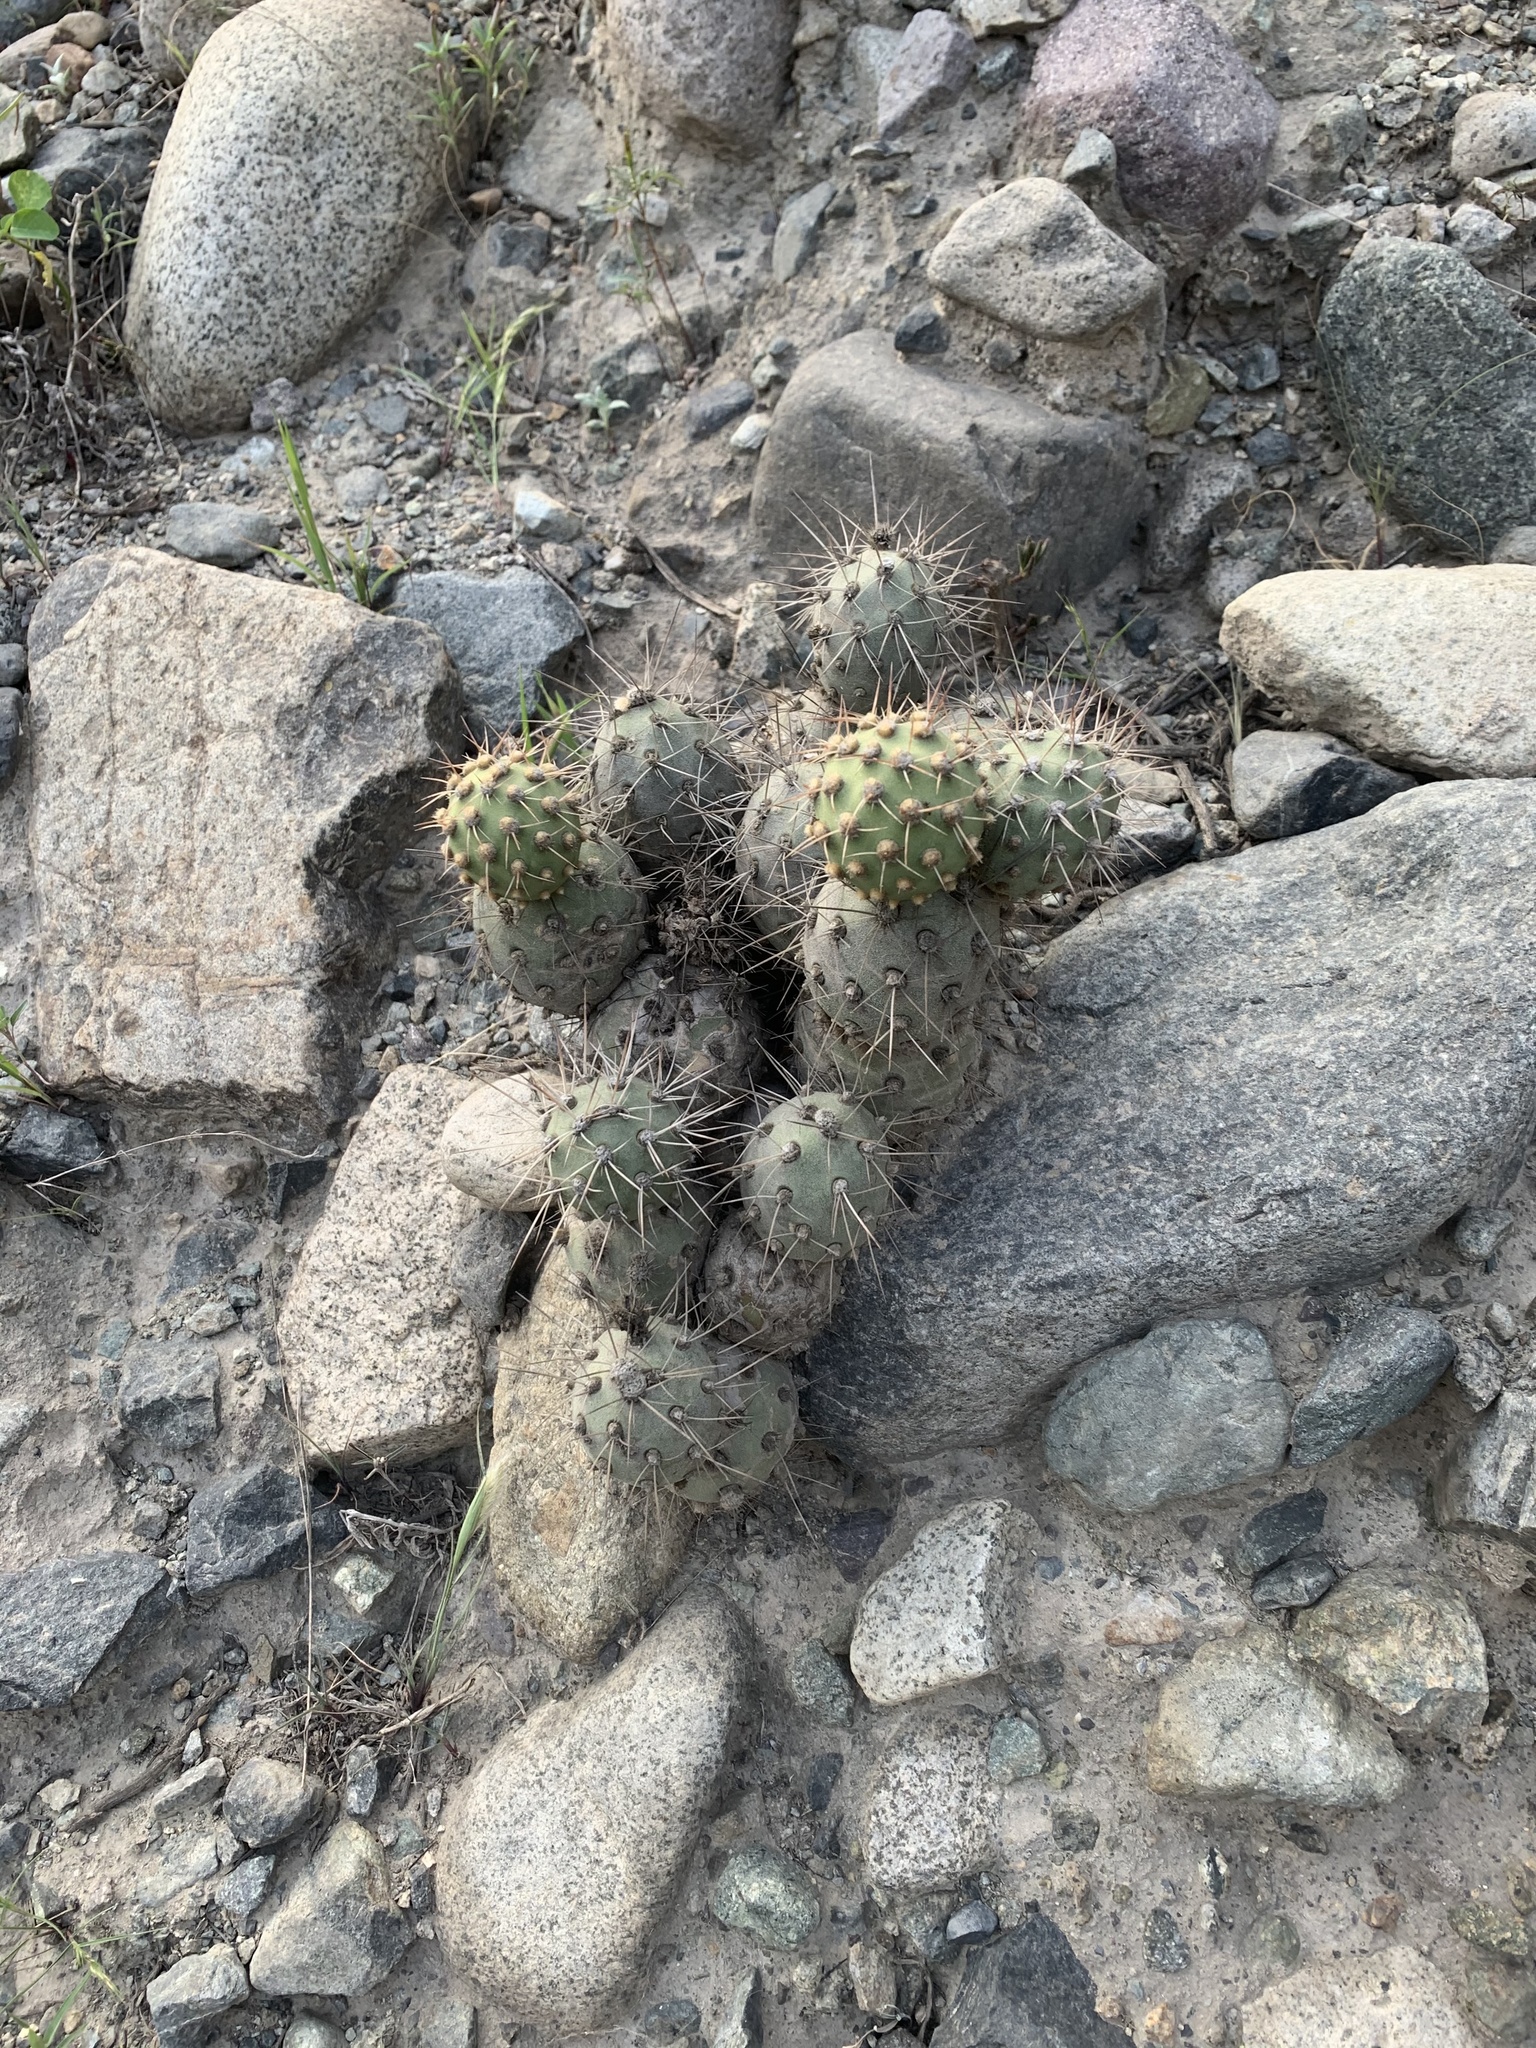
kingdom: Plantae
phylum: Tracheophyta
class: Magnoliopsida
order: Caryophyllales
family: Cactaceae
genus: Cumulopuntia
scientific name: Cumulopuntia sphaerica
